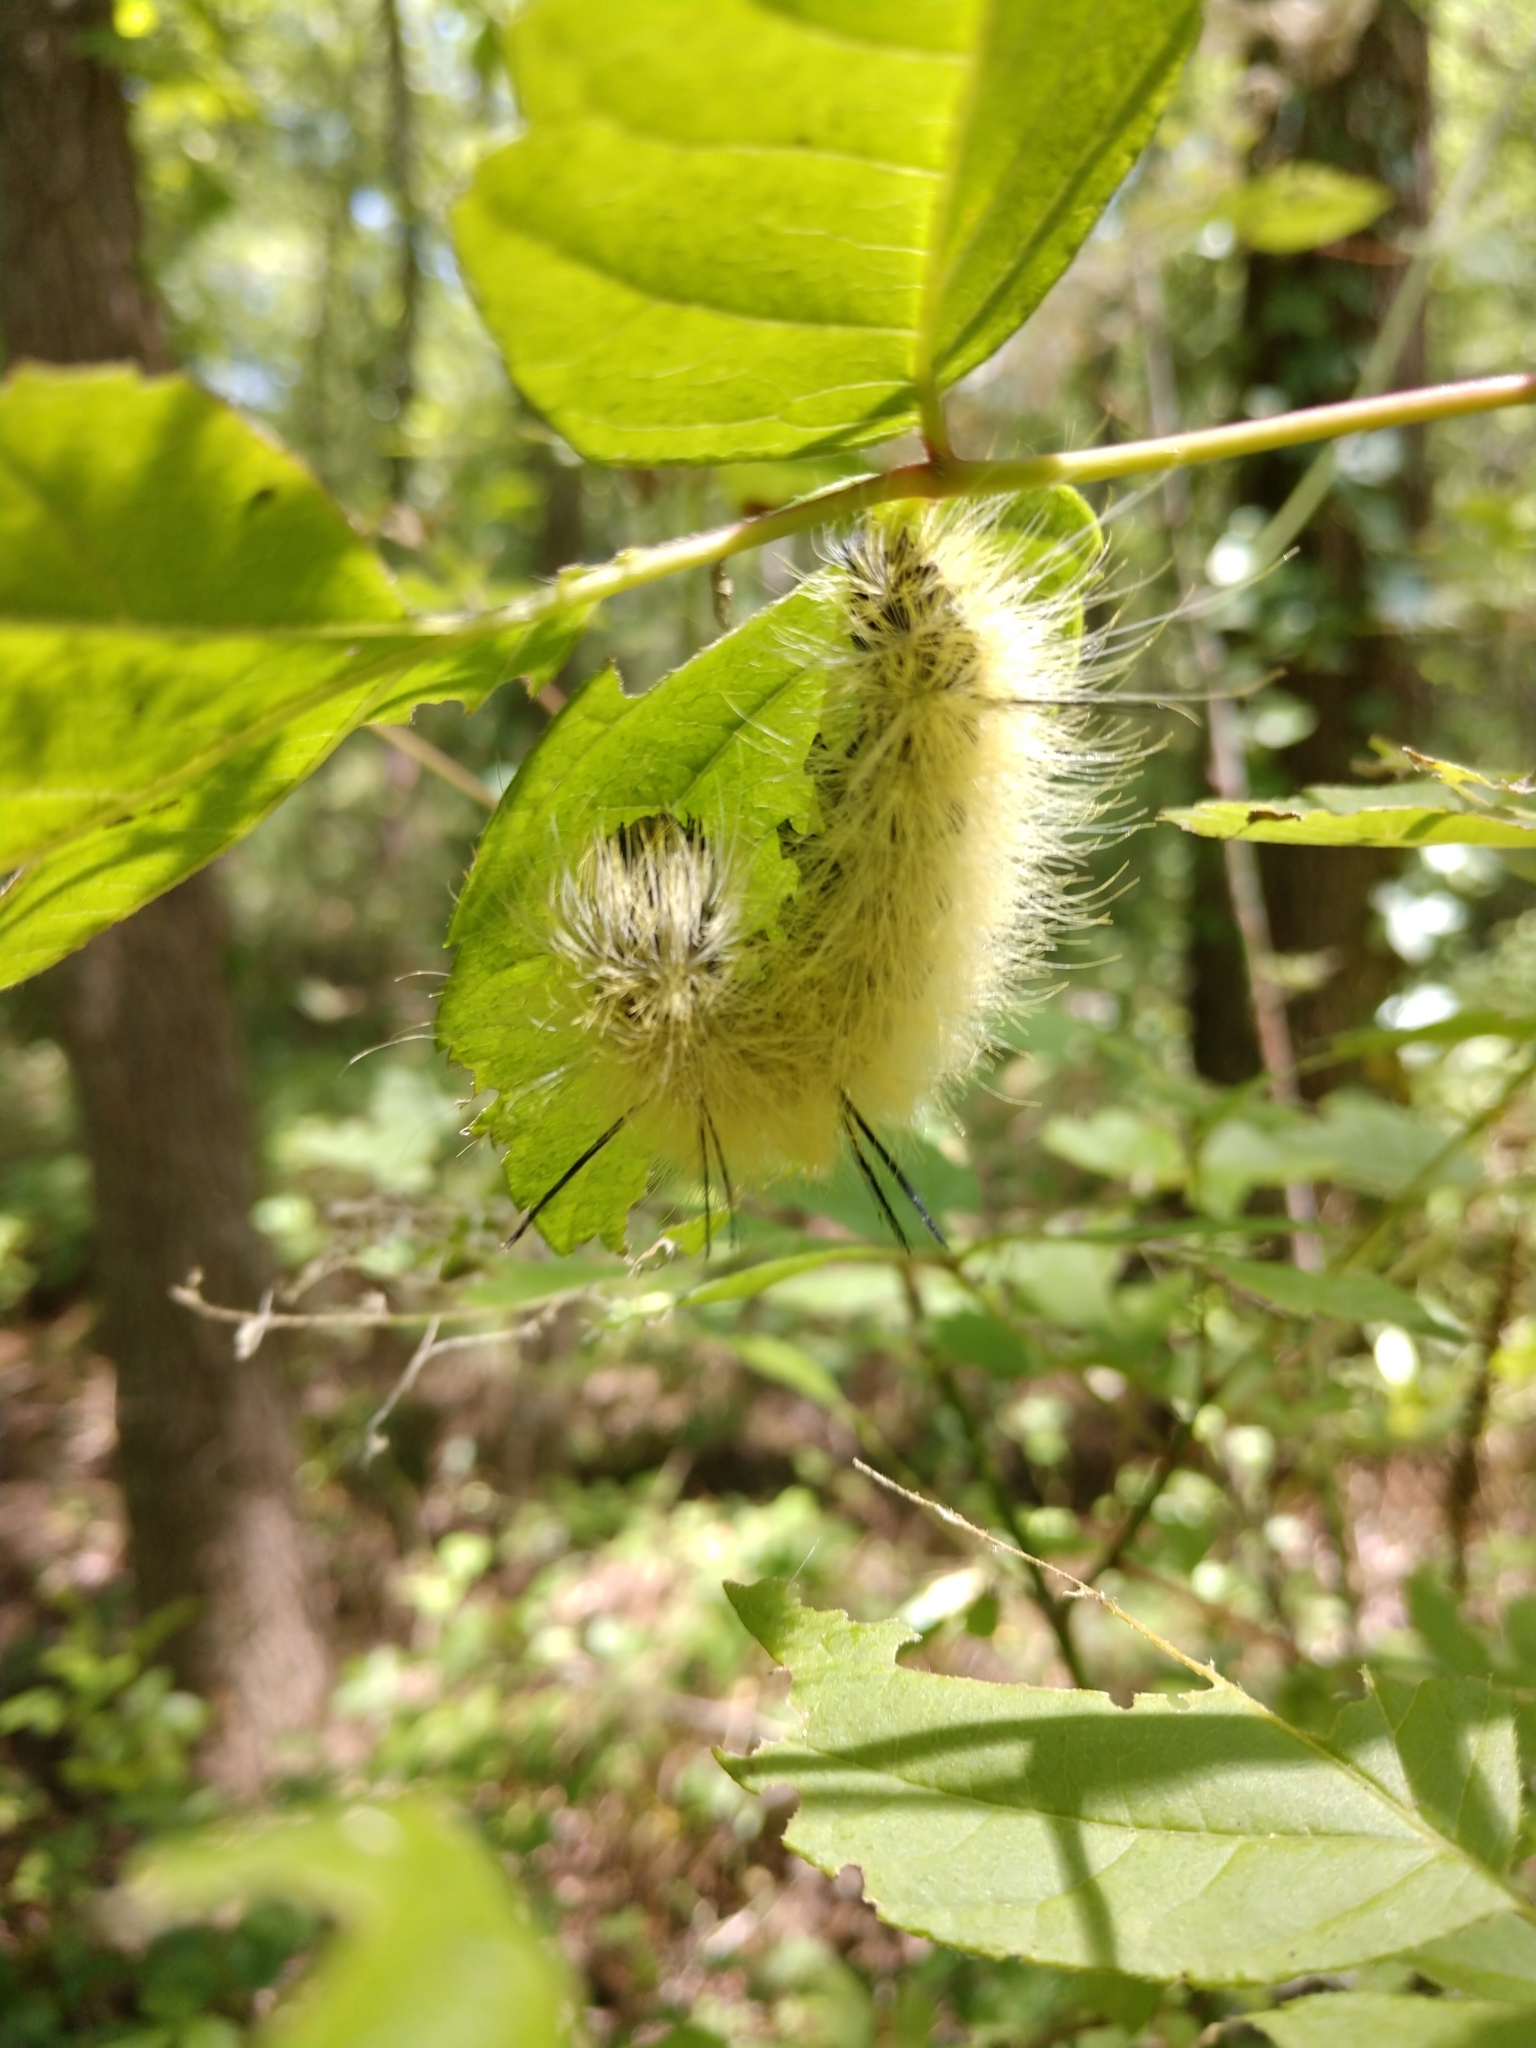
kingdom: Animalia
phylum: Arthropoda
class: Insecta
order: Lepidoptera
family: Noctuidae
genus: Acronicta
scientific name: Acronicta americana
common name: American dagger
